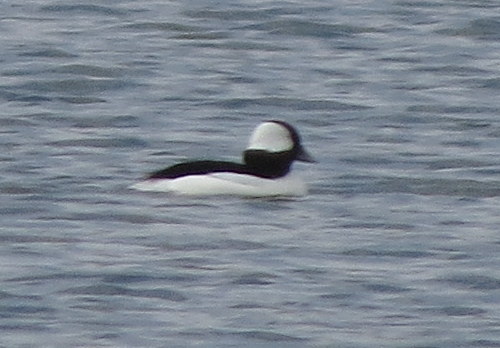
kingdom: Animalia
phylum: Chordata
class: Aves
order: Anseriformes
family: Anatidae
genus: Bucephala
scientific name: Bucephala albeola
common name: Bufflehead
